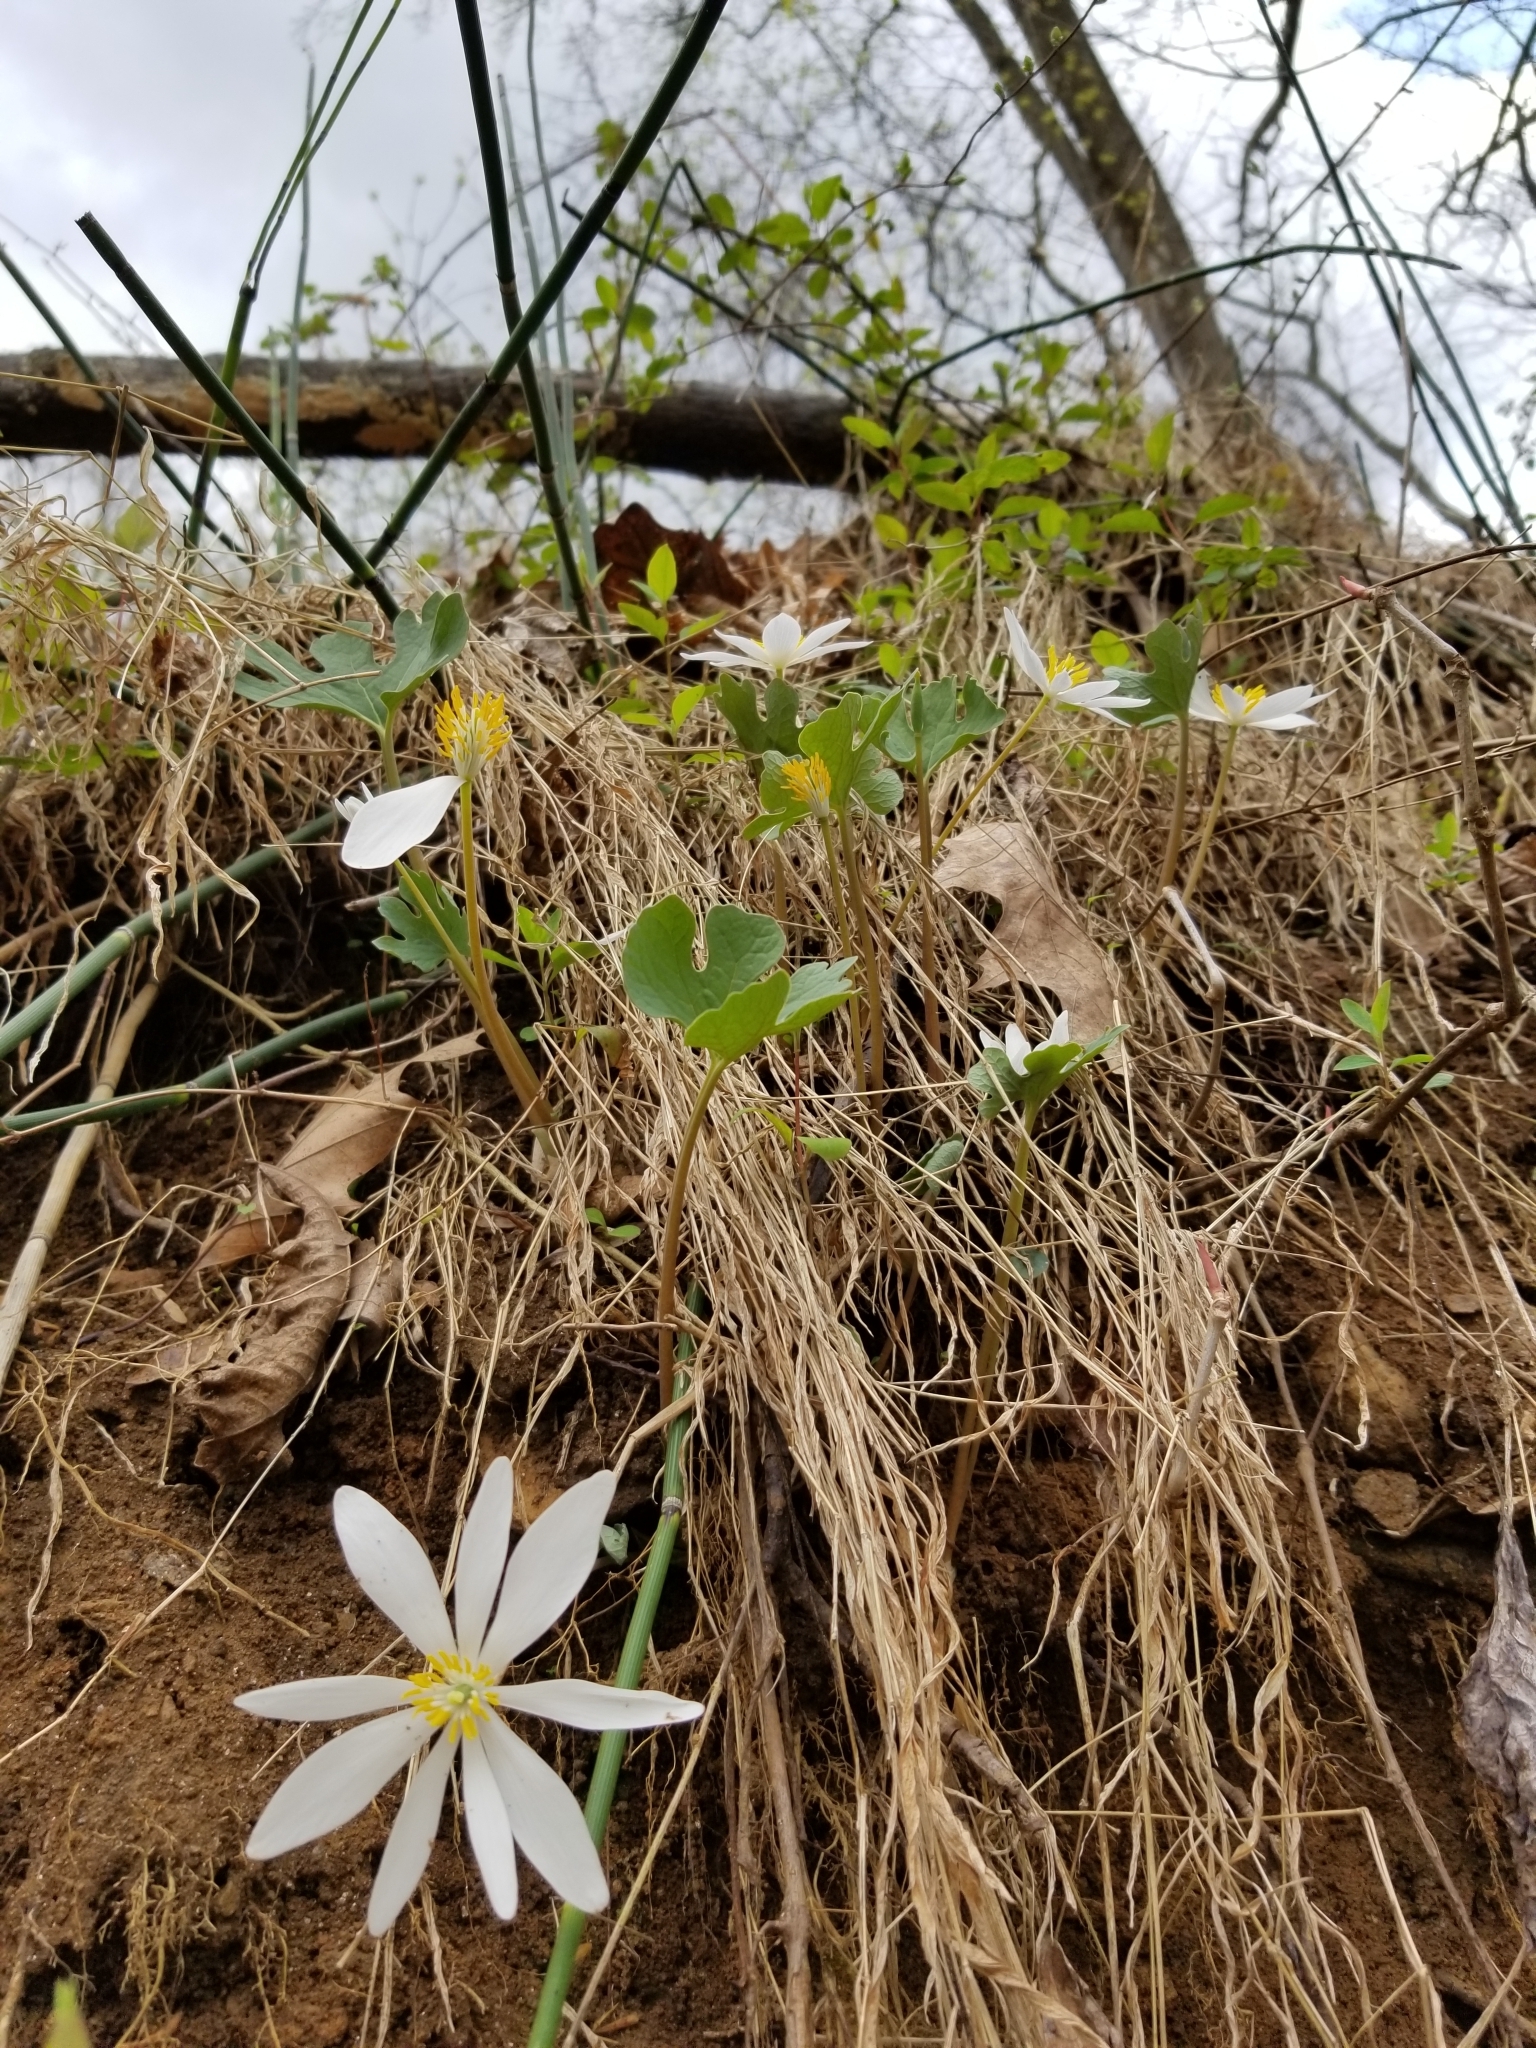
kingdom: Plantae
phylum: Tracheophyta
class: Magnoliopsida
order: Ranunculales
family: Papaveraceae
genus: Sanguinaria
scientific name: Sanguinaria canadensis
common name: Bloodroot
